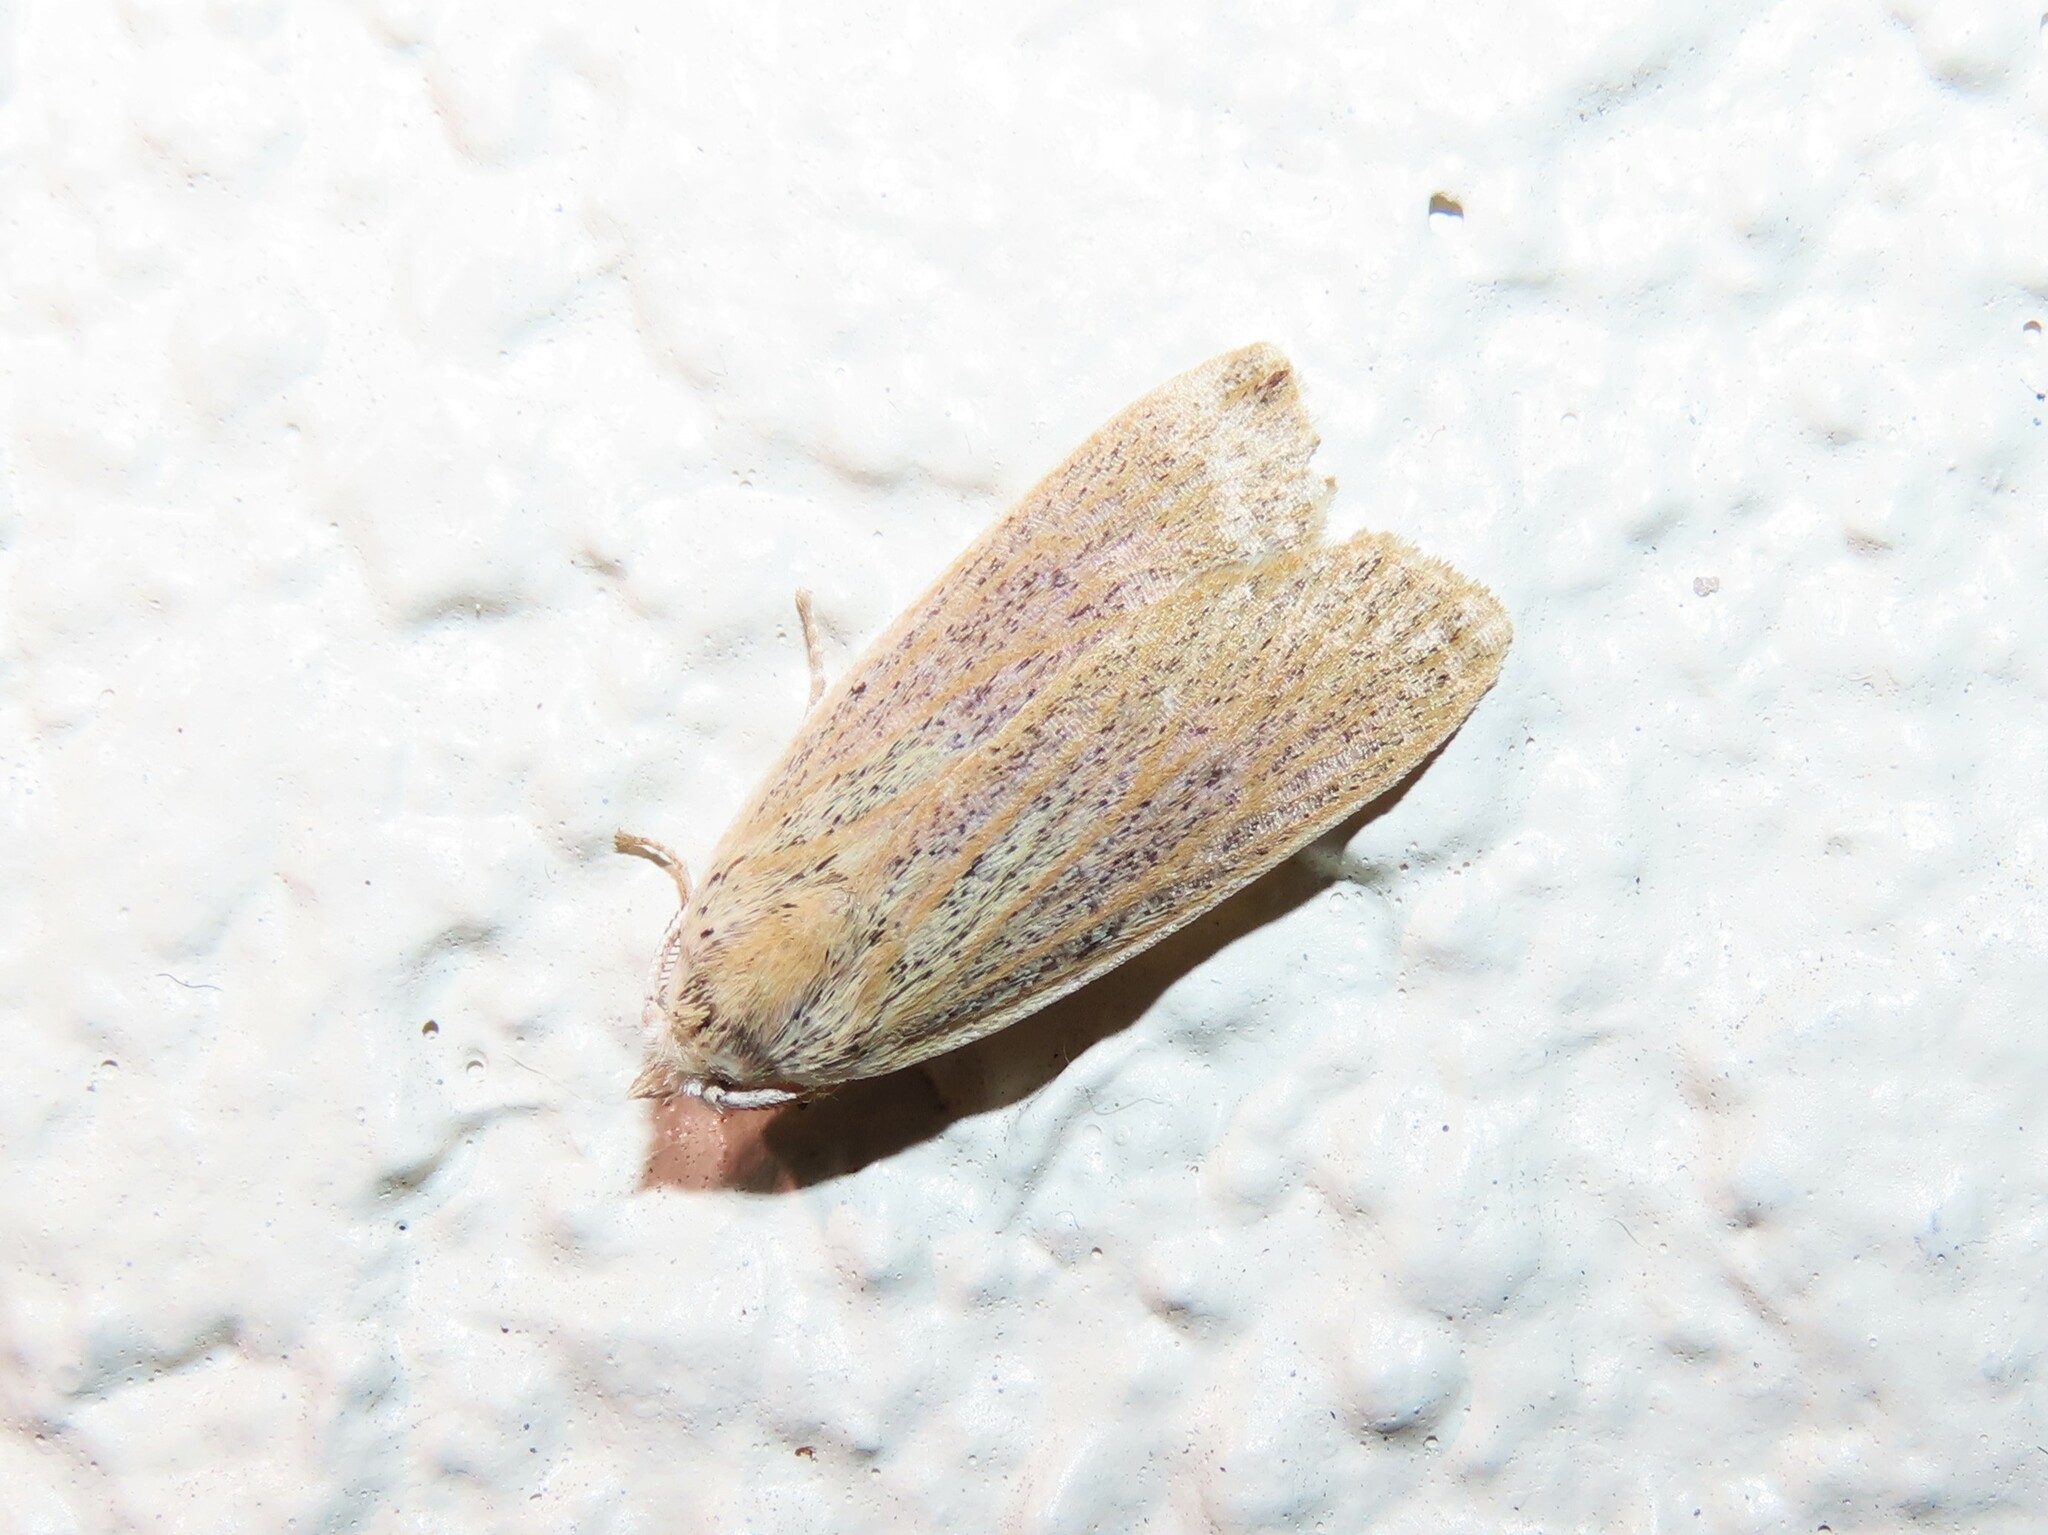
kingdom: Animalia
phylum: Arthropoda
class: Insecta
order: Lepidoptera
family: Erebidae
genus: Palpidia
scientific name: Palpidia pallidior
